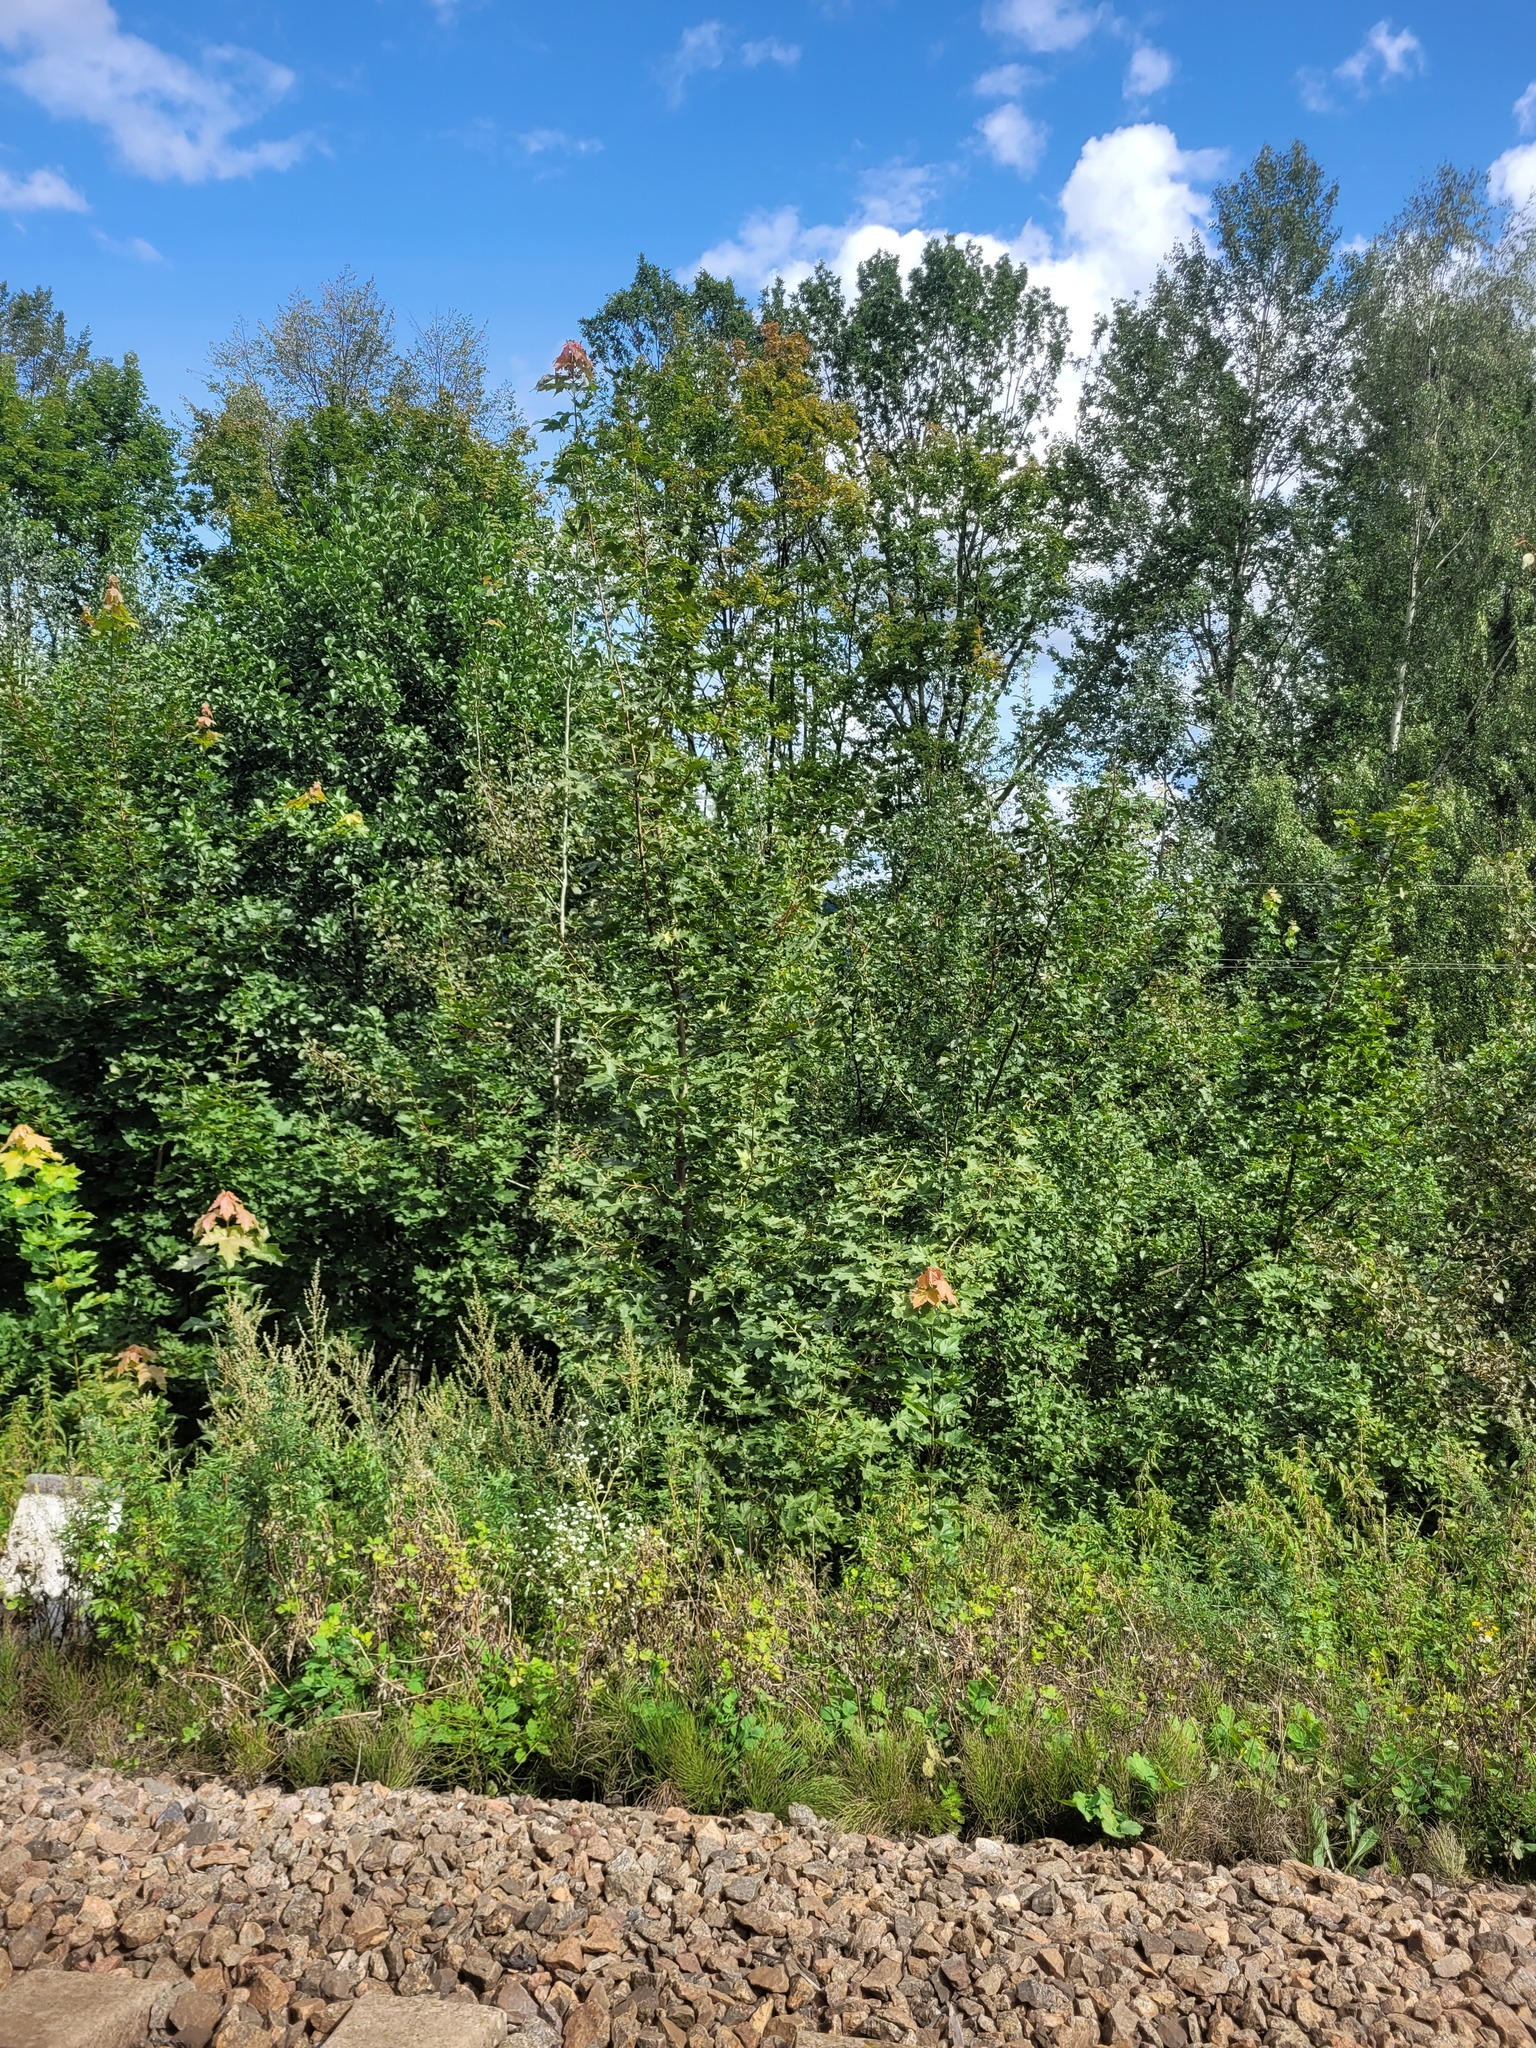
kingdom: Plantae
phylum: Tracheophyta
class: Magnoliopsida
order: Sapindales
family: Sapindaceae
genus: Acer
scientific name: Acer platanoides
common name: Norway maple
